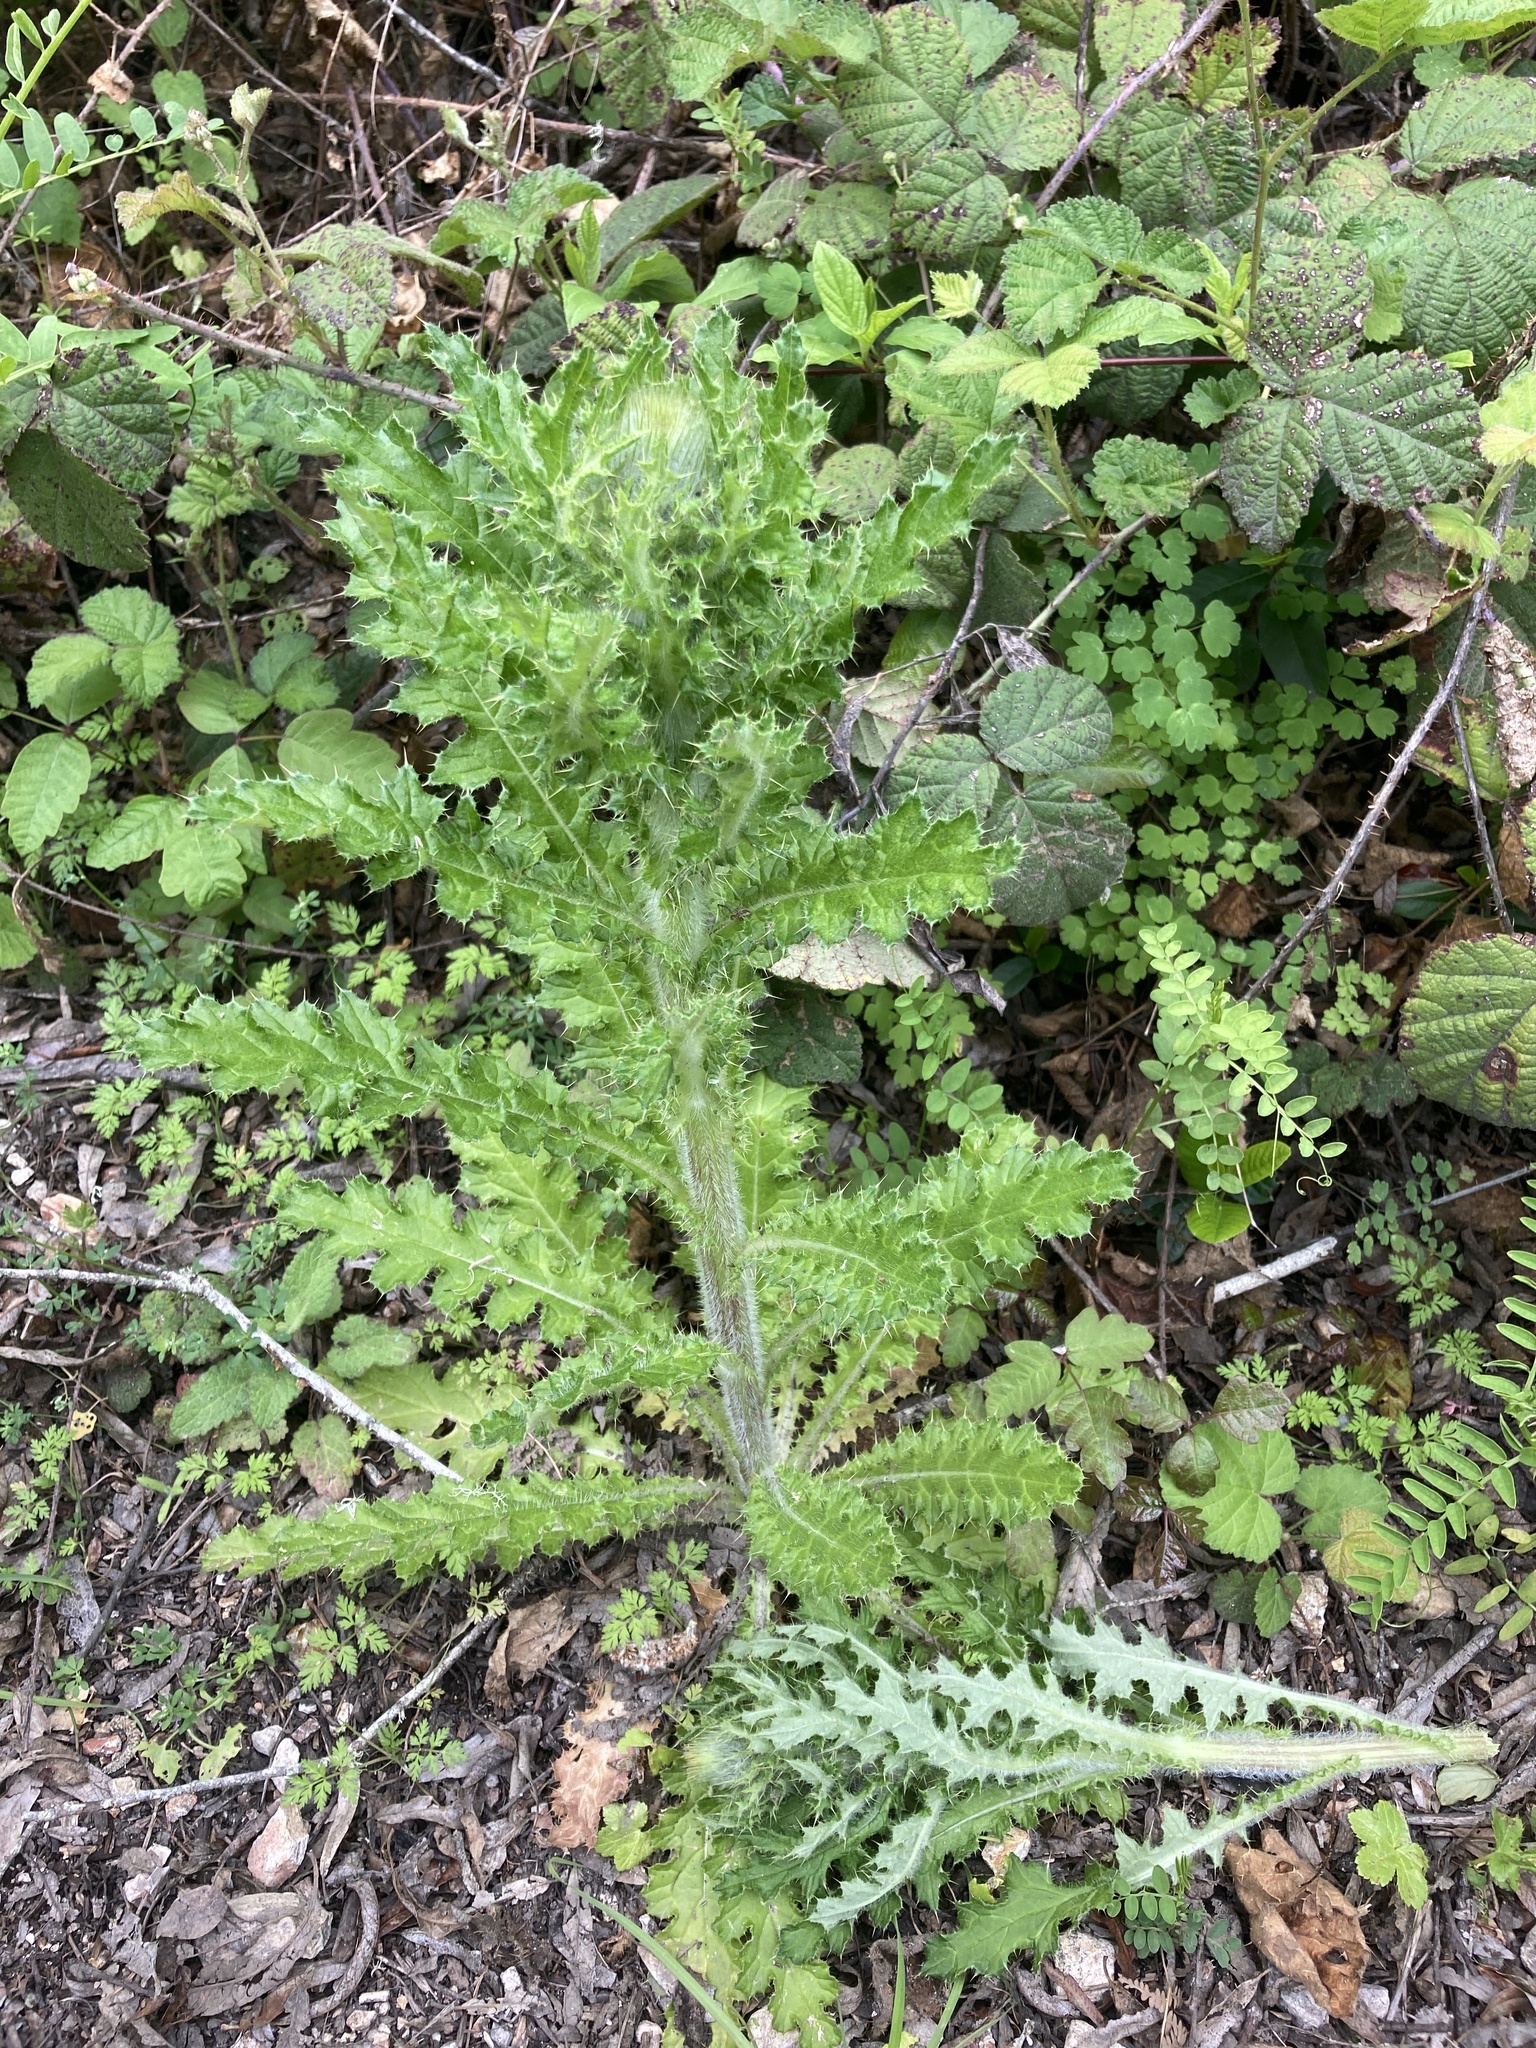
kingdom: Plantae
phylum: Tracheophyta
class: Magnoliopsida
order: Asterales
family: Asteraceae
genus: Cirsium
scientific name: Cirsium brevistylum
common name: Indian thistle
